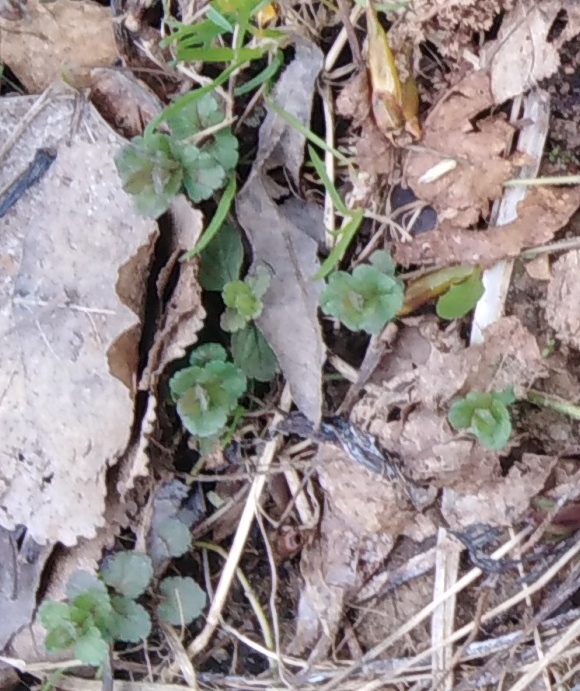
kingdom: Plantae
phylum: Tracheophyta
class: Magnoliopsida
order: Lamiales
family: Plantaginaceae
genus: Veronica
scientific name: Veronica chamaedrys
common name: Germander speedwell
